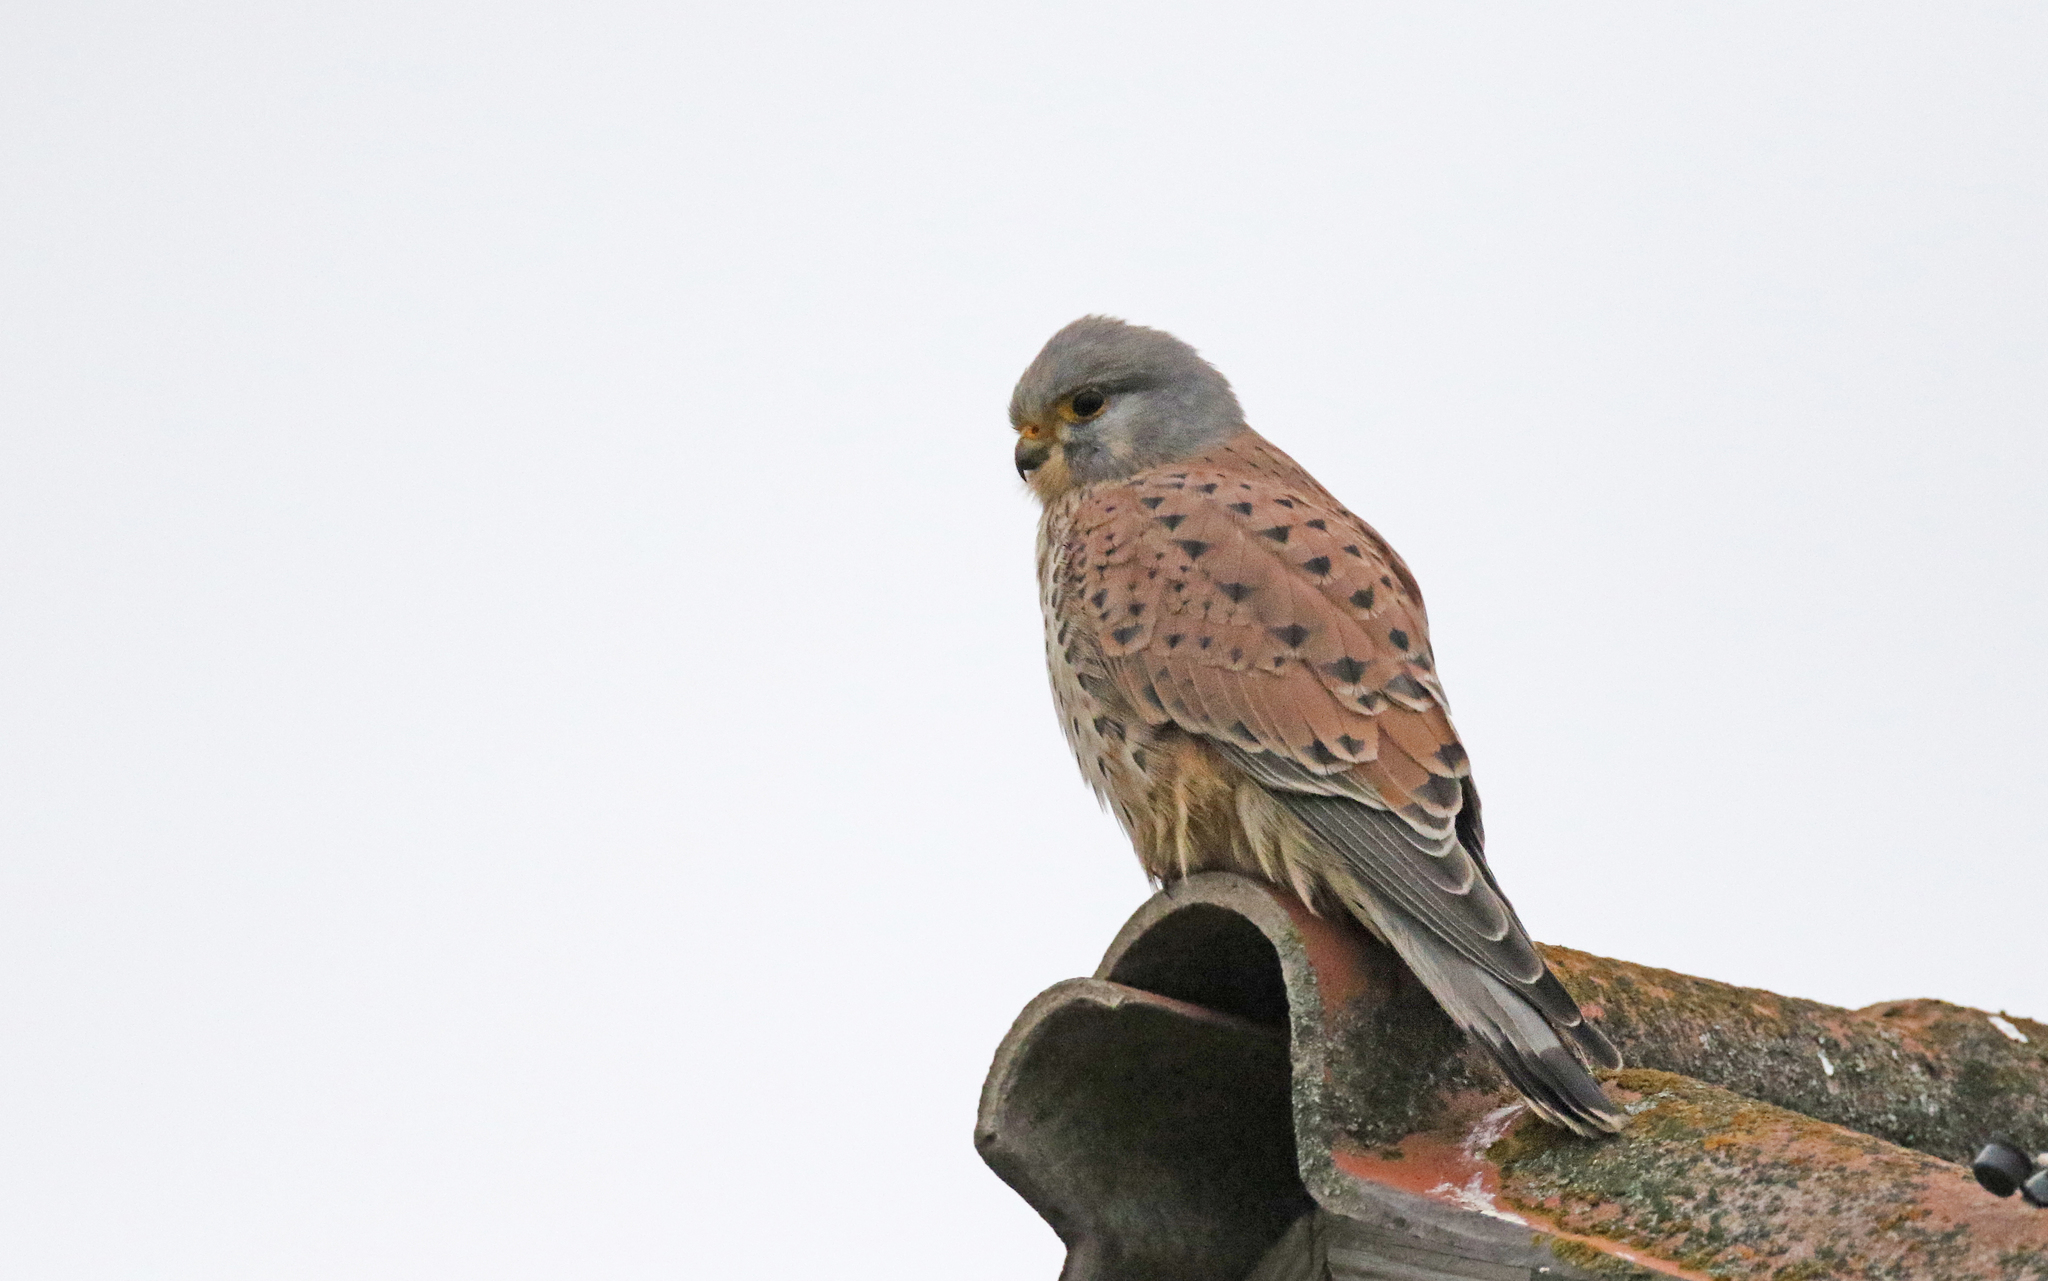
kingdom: Animalia
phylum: Chordata
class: Aves
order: Falconiformes
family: Falconidae
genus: Falco
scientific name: Falco tinnunculus
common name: Common kestrel
